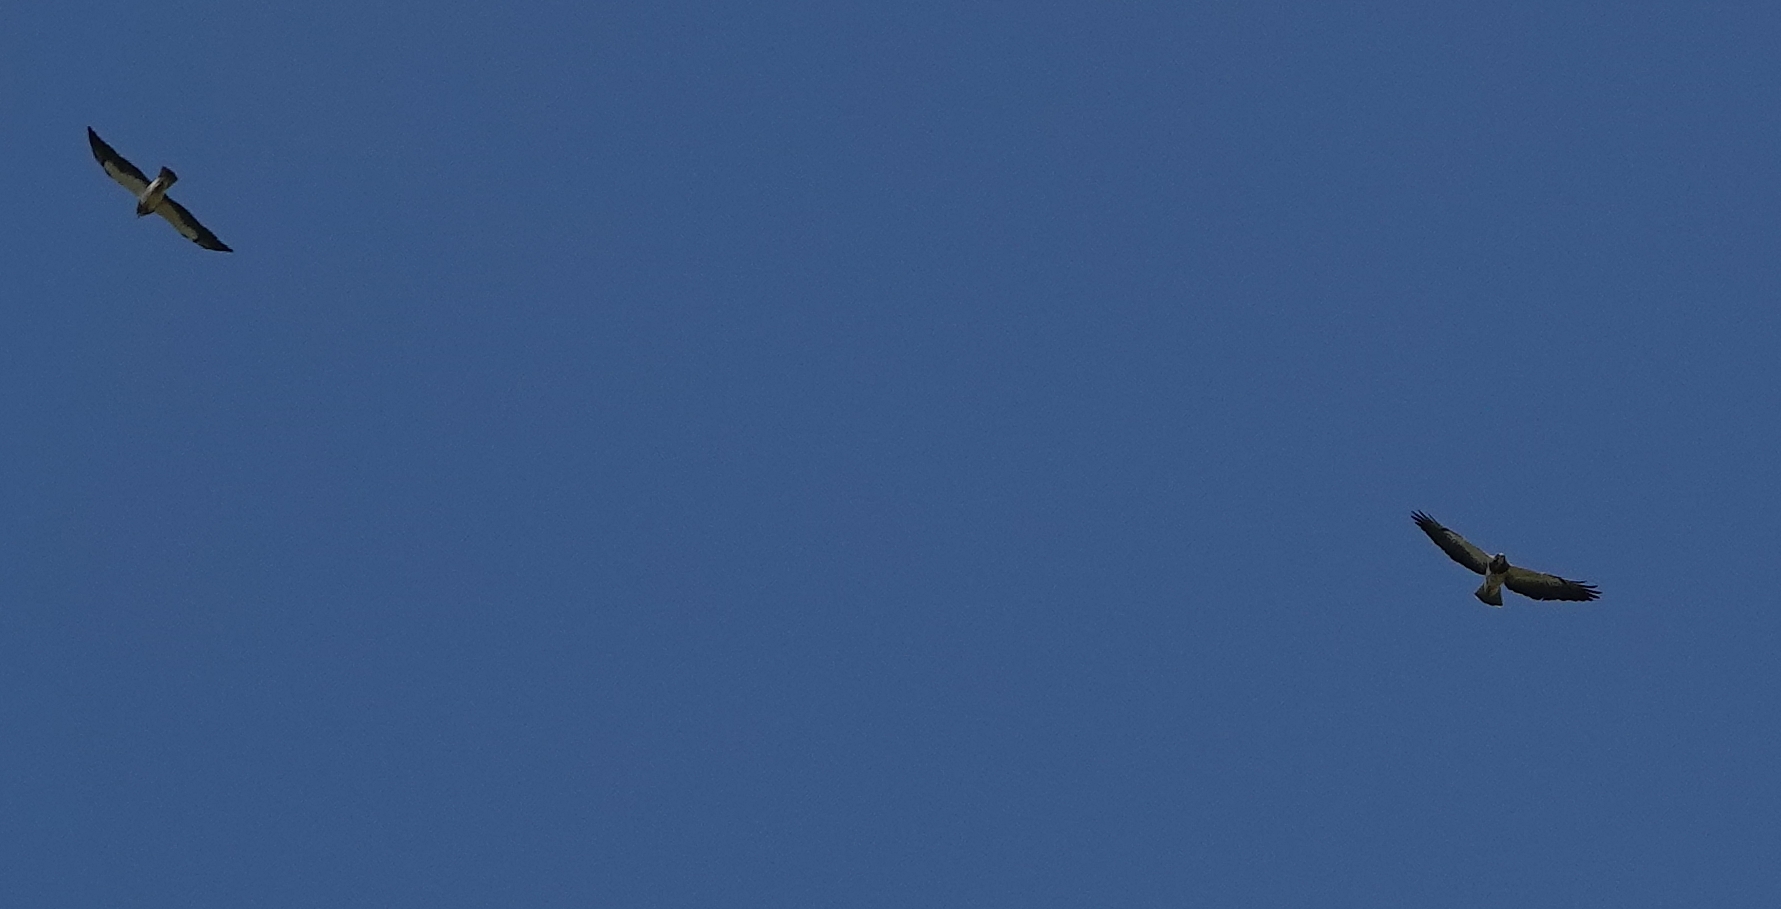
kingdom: Animalia
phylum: Chordata
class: Aves
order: Accipitriformes
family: Accipitridae
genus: Buteo
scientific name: Buteo swainsoni
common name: Swainson's hawk
